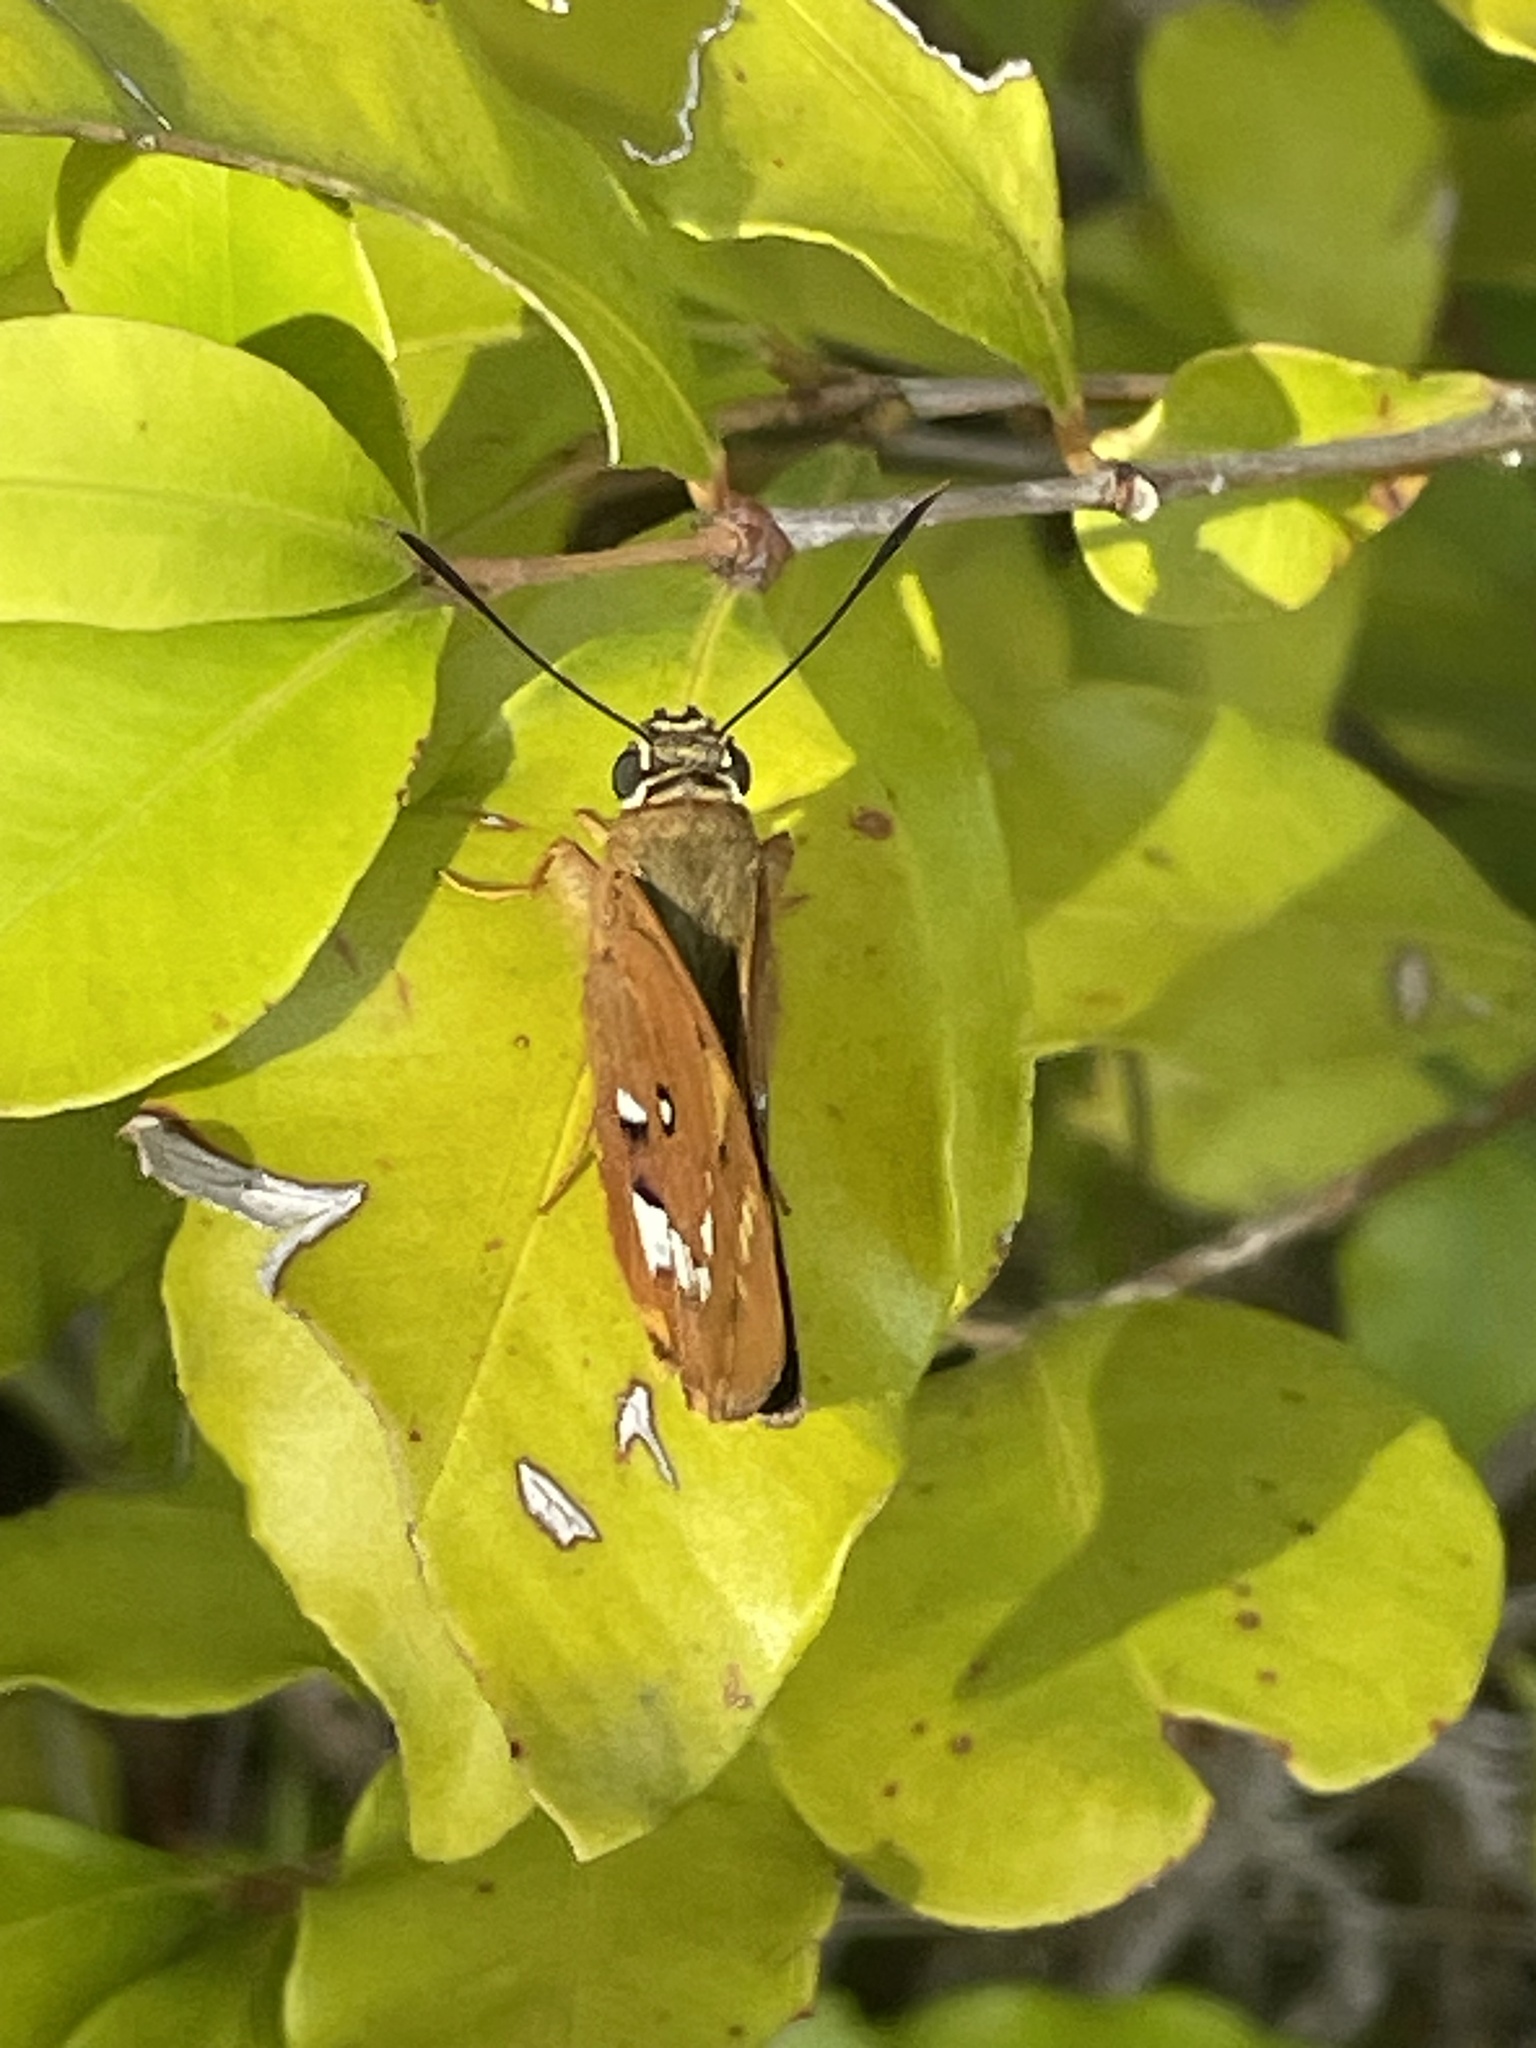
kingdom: Animalia
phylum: Arthropoda
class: Insecta
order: Lepidoptera
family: Hesperiidae
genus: Trapezites
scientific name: Trapezites symmomus
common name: Splendid ochre
